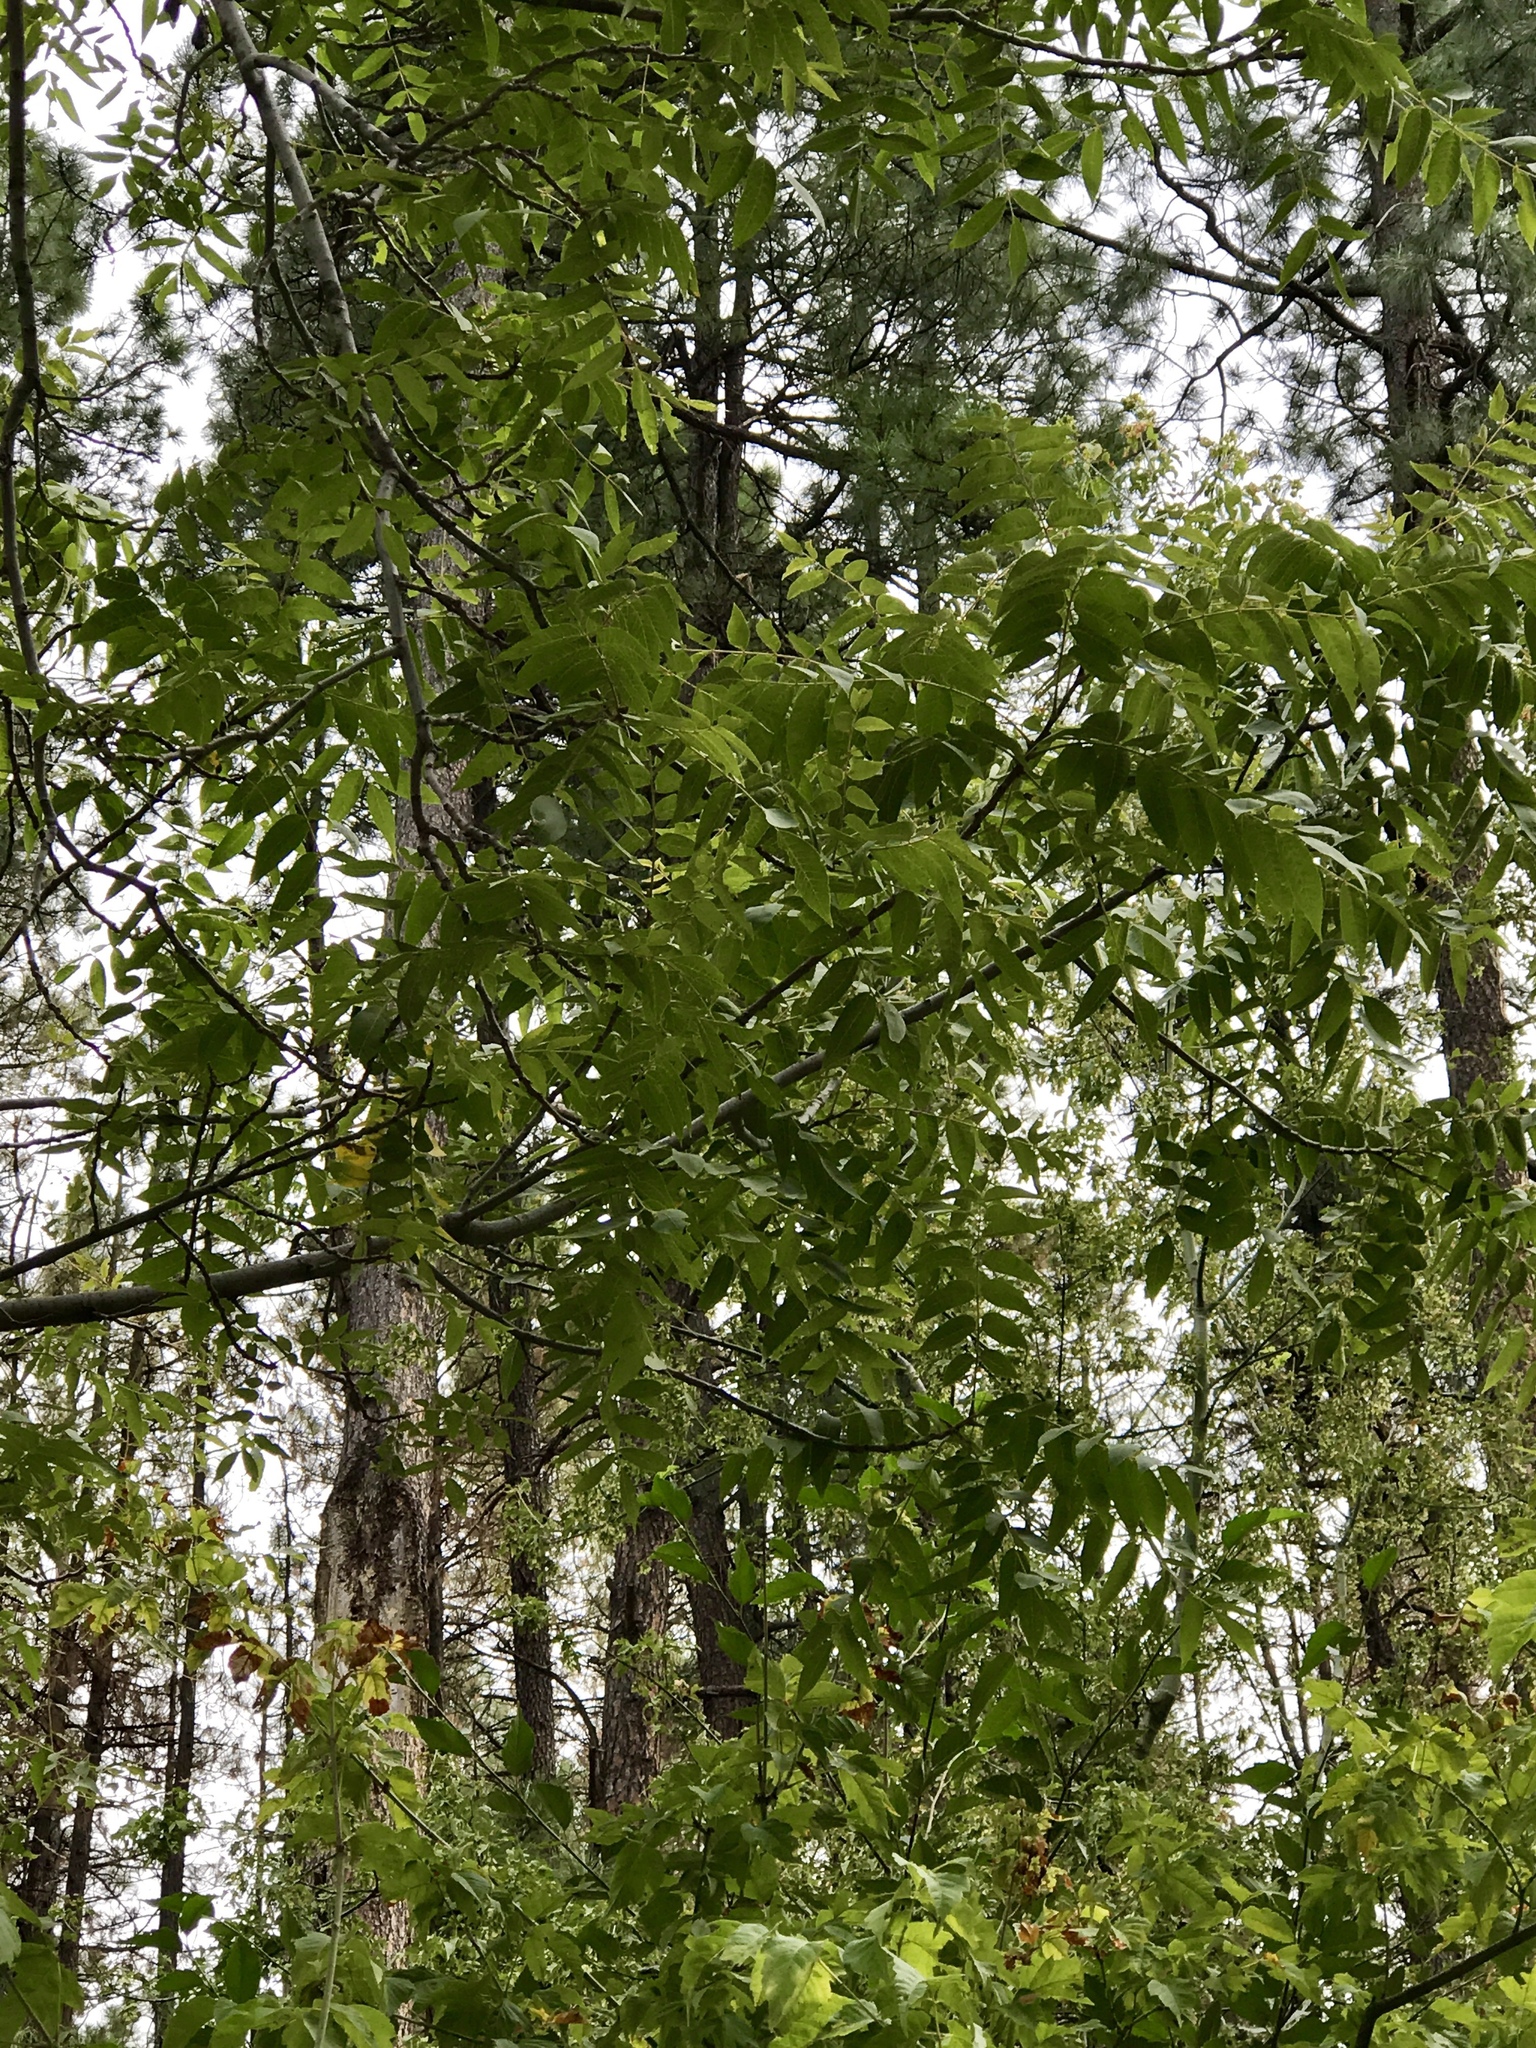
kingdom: Plantae
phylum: Tracheophyta
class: Magnoliopsida
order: Fagales
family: Juglandaceae
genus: Juglans
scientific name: Juglans major
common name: Arizona walnut
